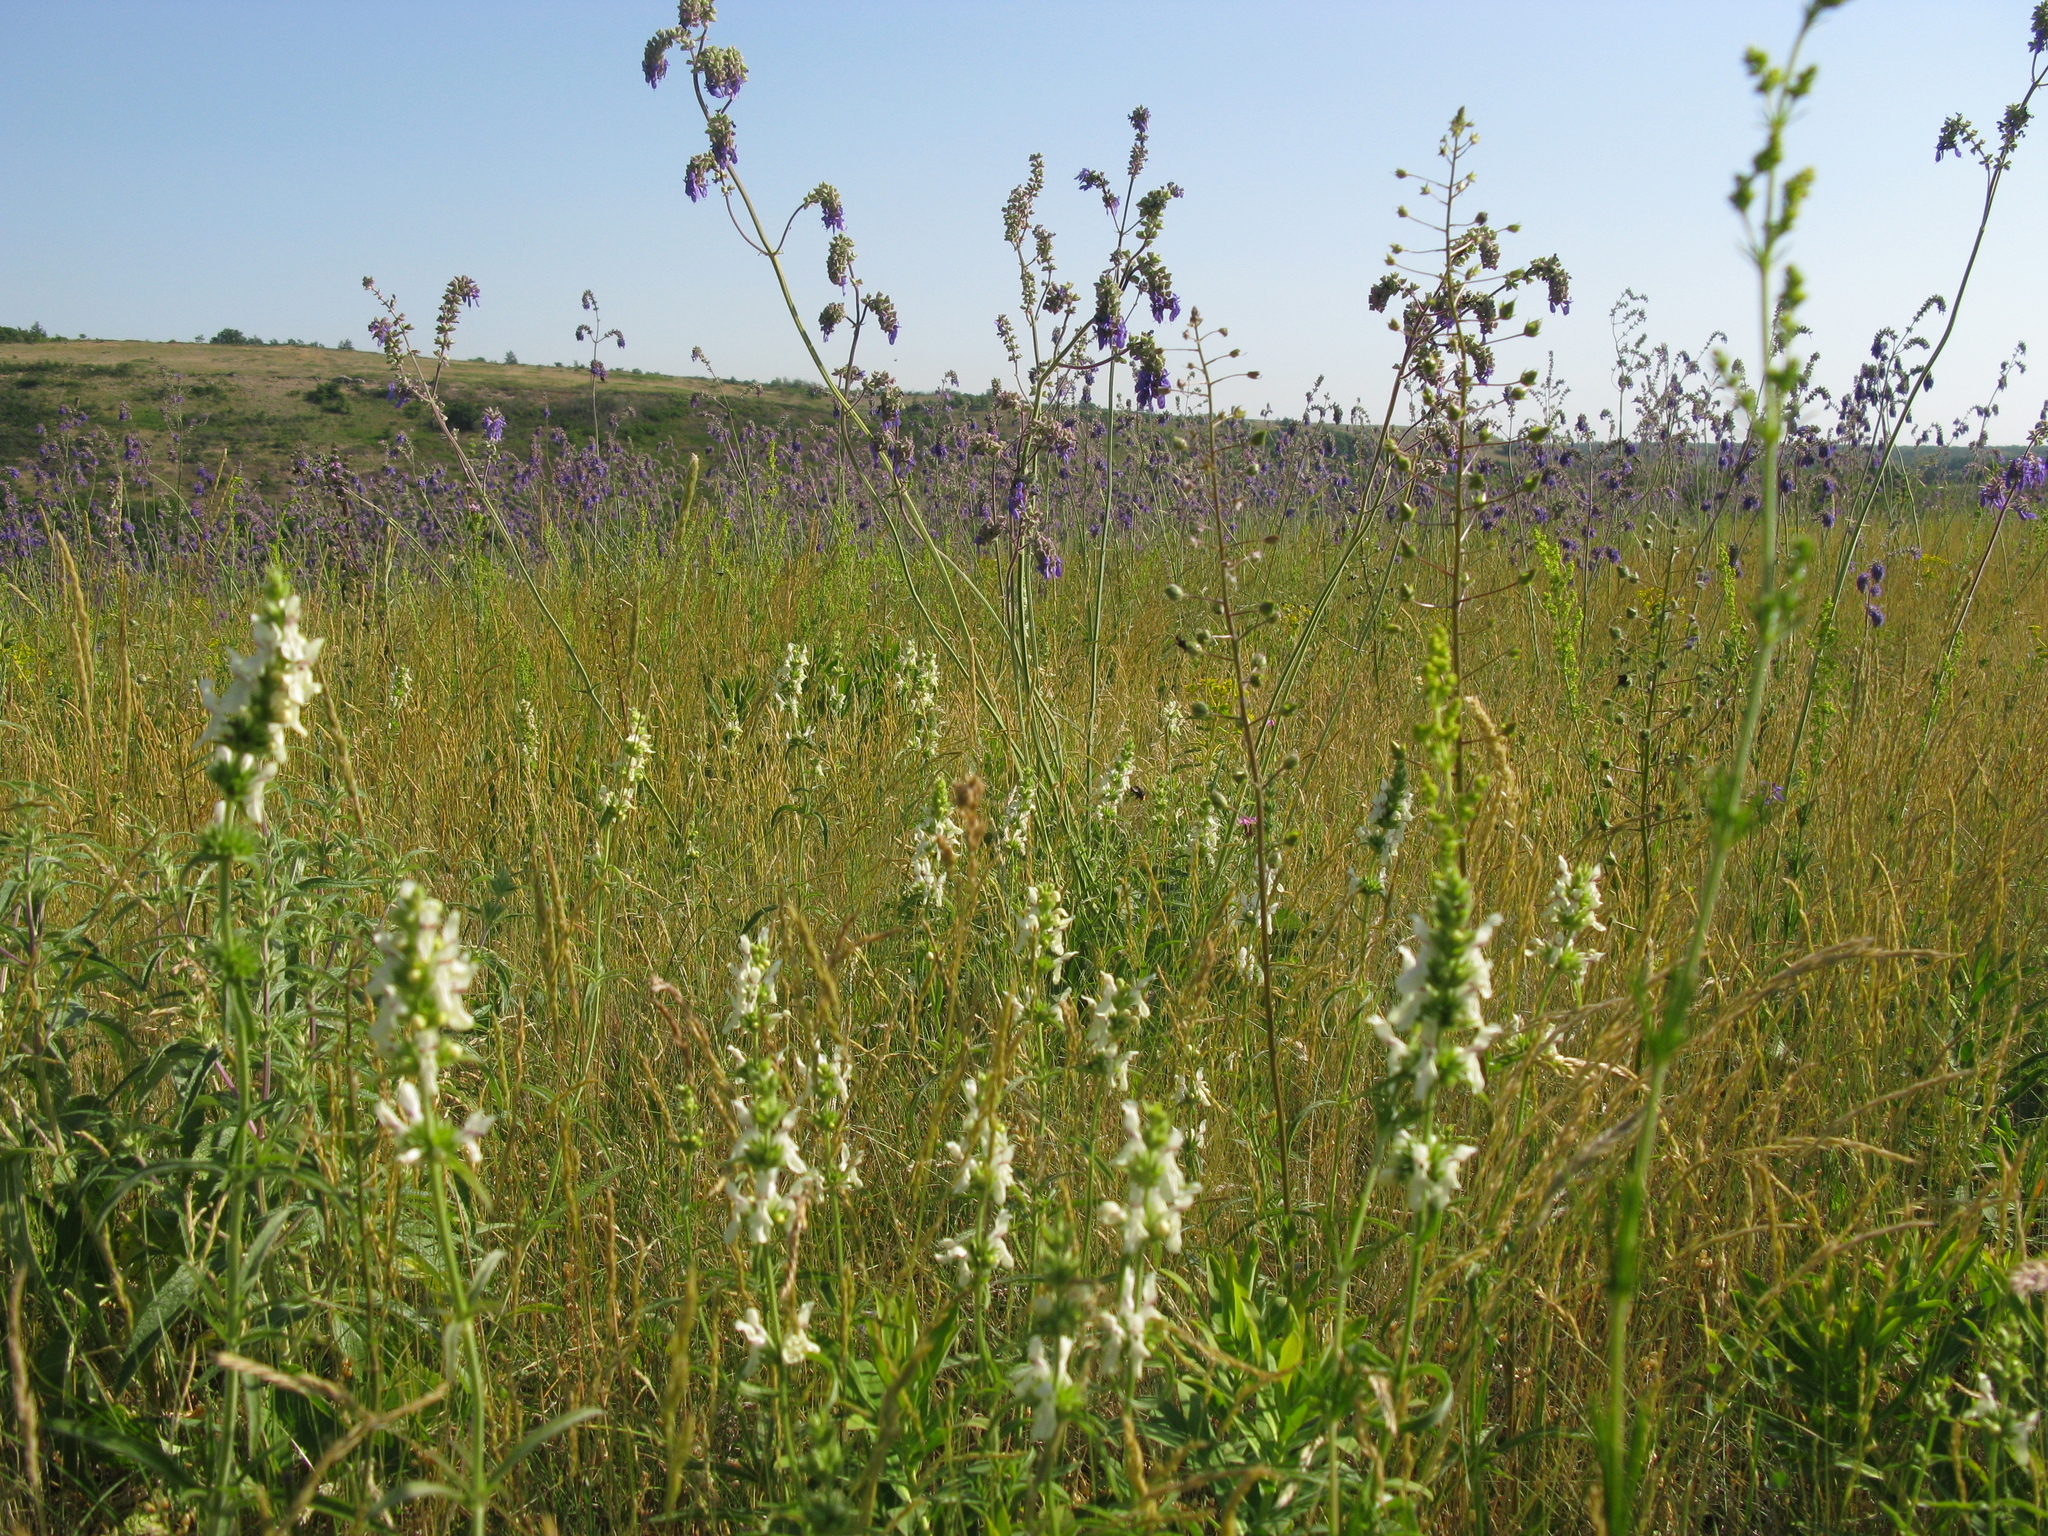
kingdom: Plantae
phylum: Tracheophyta
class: Magnoliopsida
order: Lamiales
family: Scrophulariaceae
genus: Verbascum
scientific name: Verbascum phoeniceum
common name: Purple mullein
